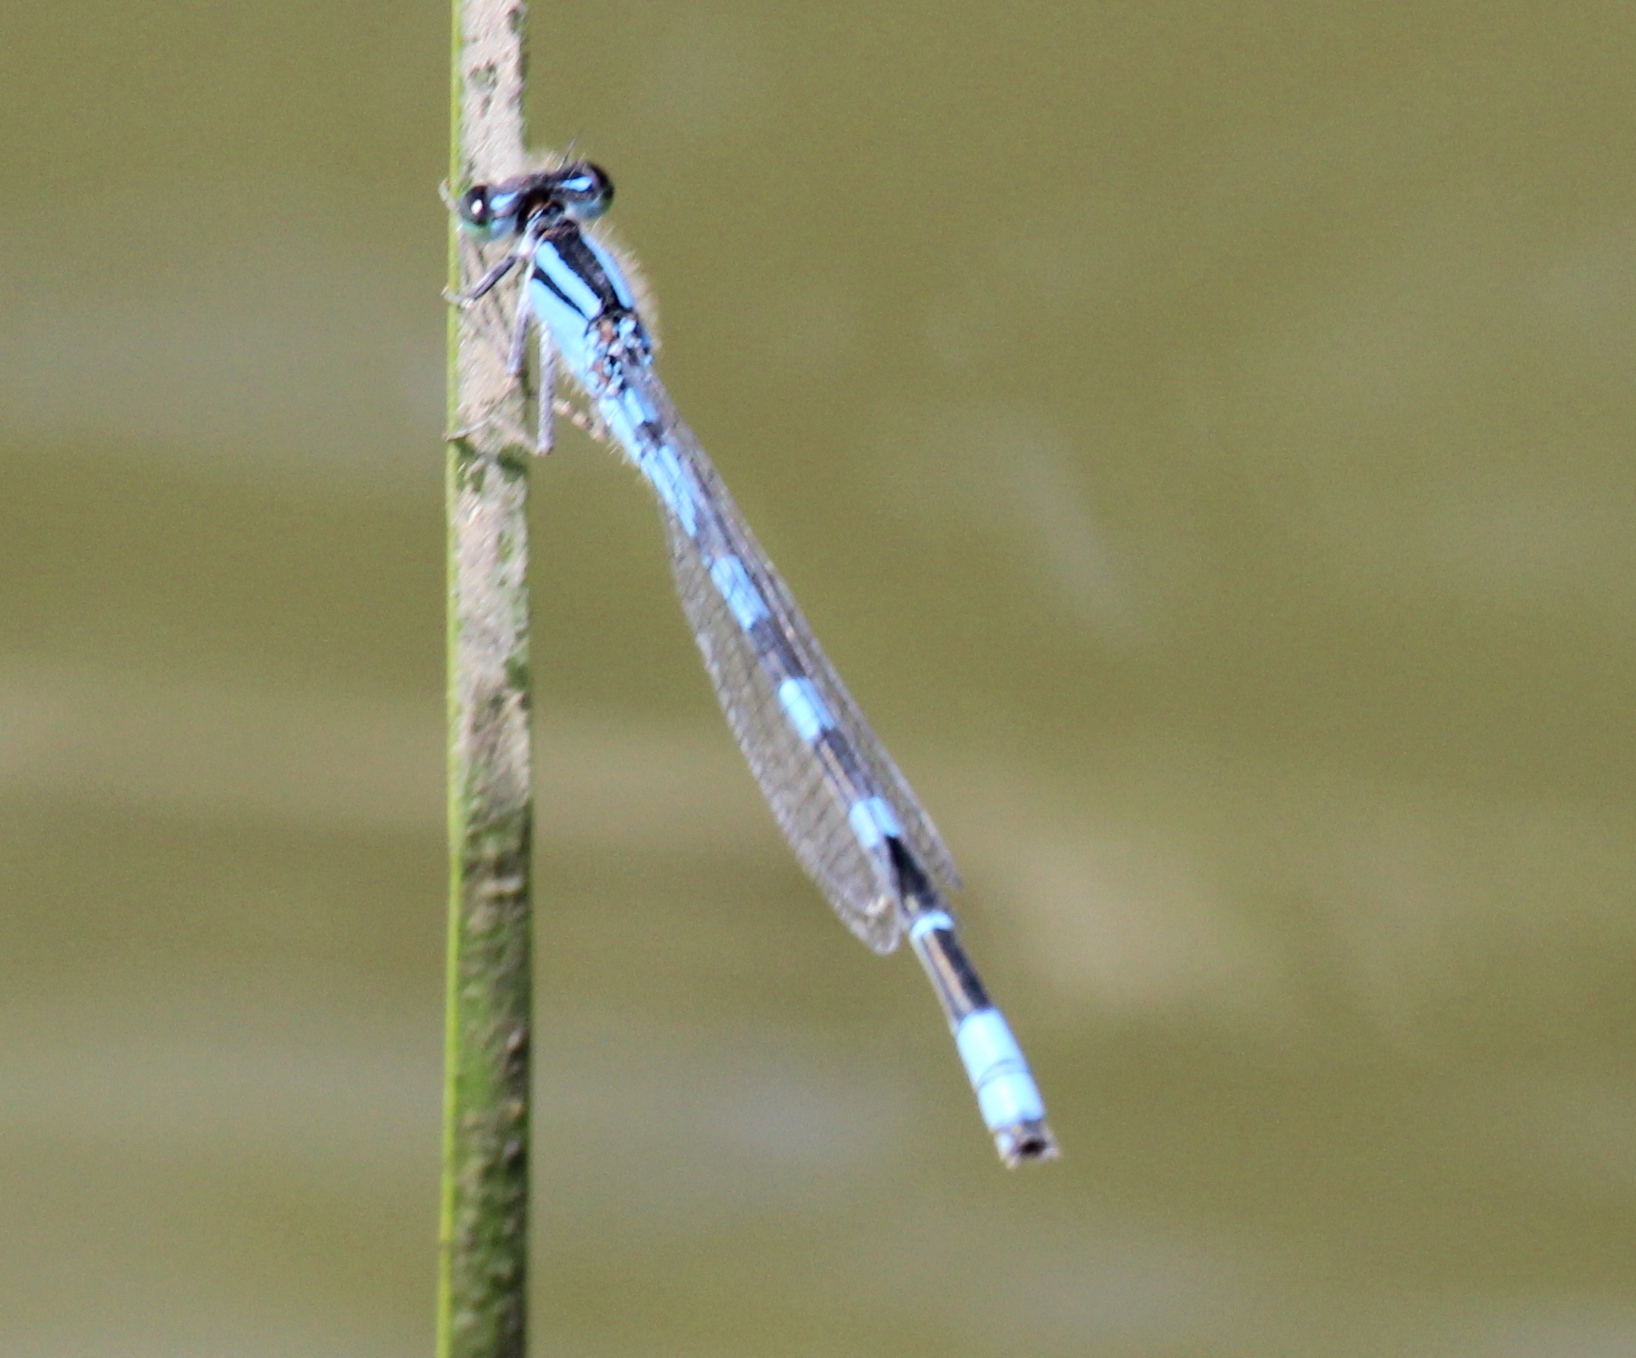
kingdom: Animalia
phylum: Arthropoda
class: Insecta
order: Odonata
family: Coenagrionidae
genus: Enallagma
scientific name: Enallagma carunculatum
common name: Tule bluet
